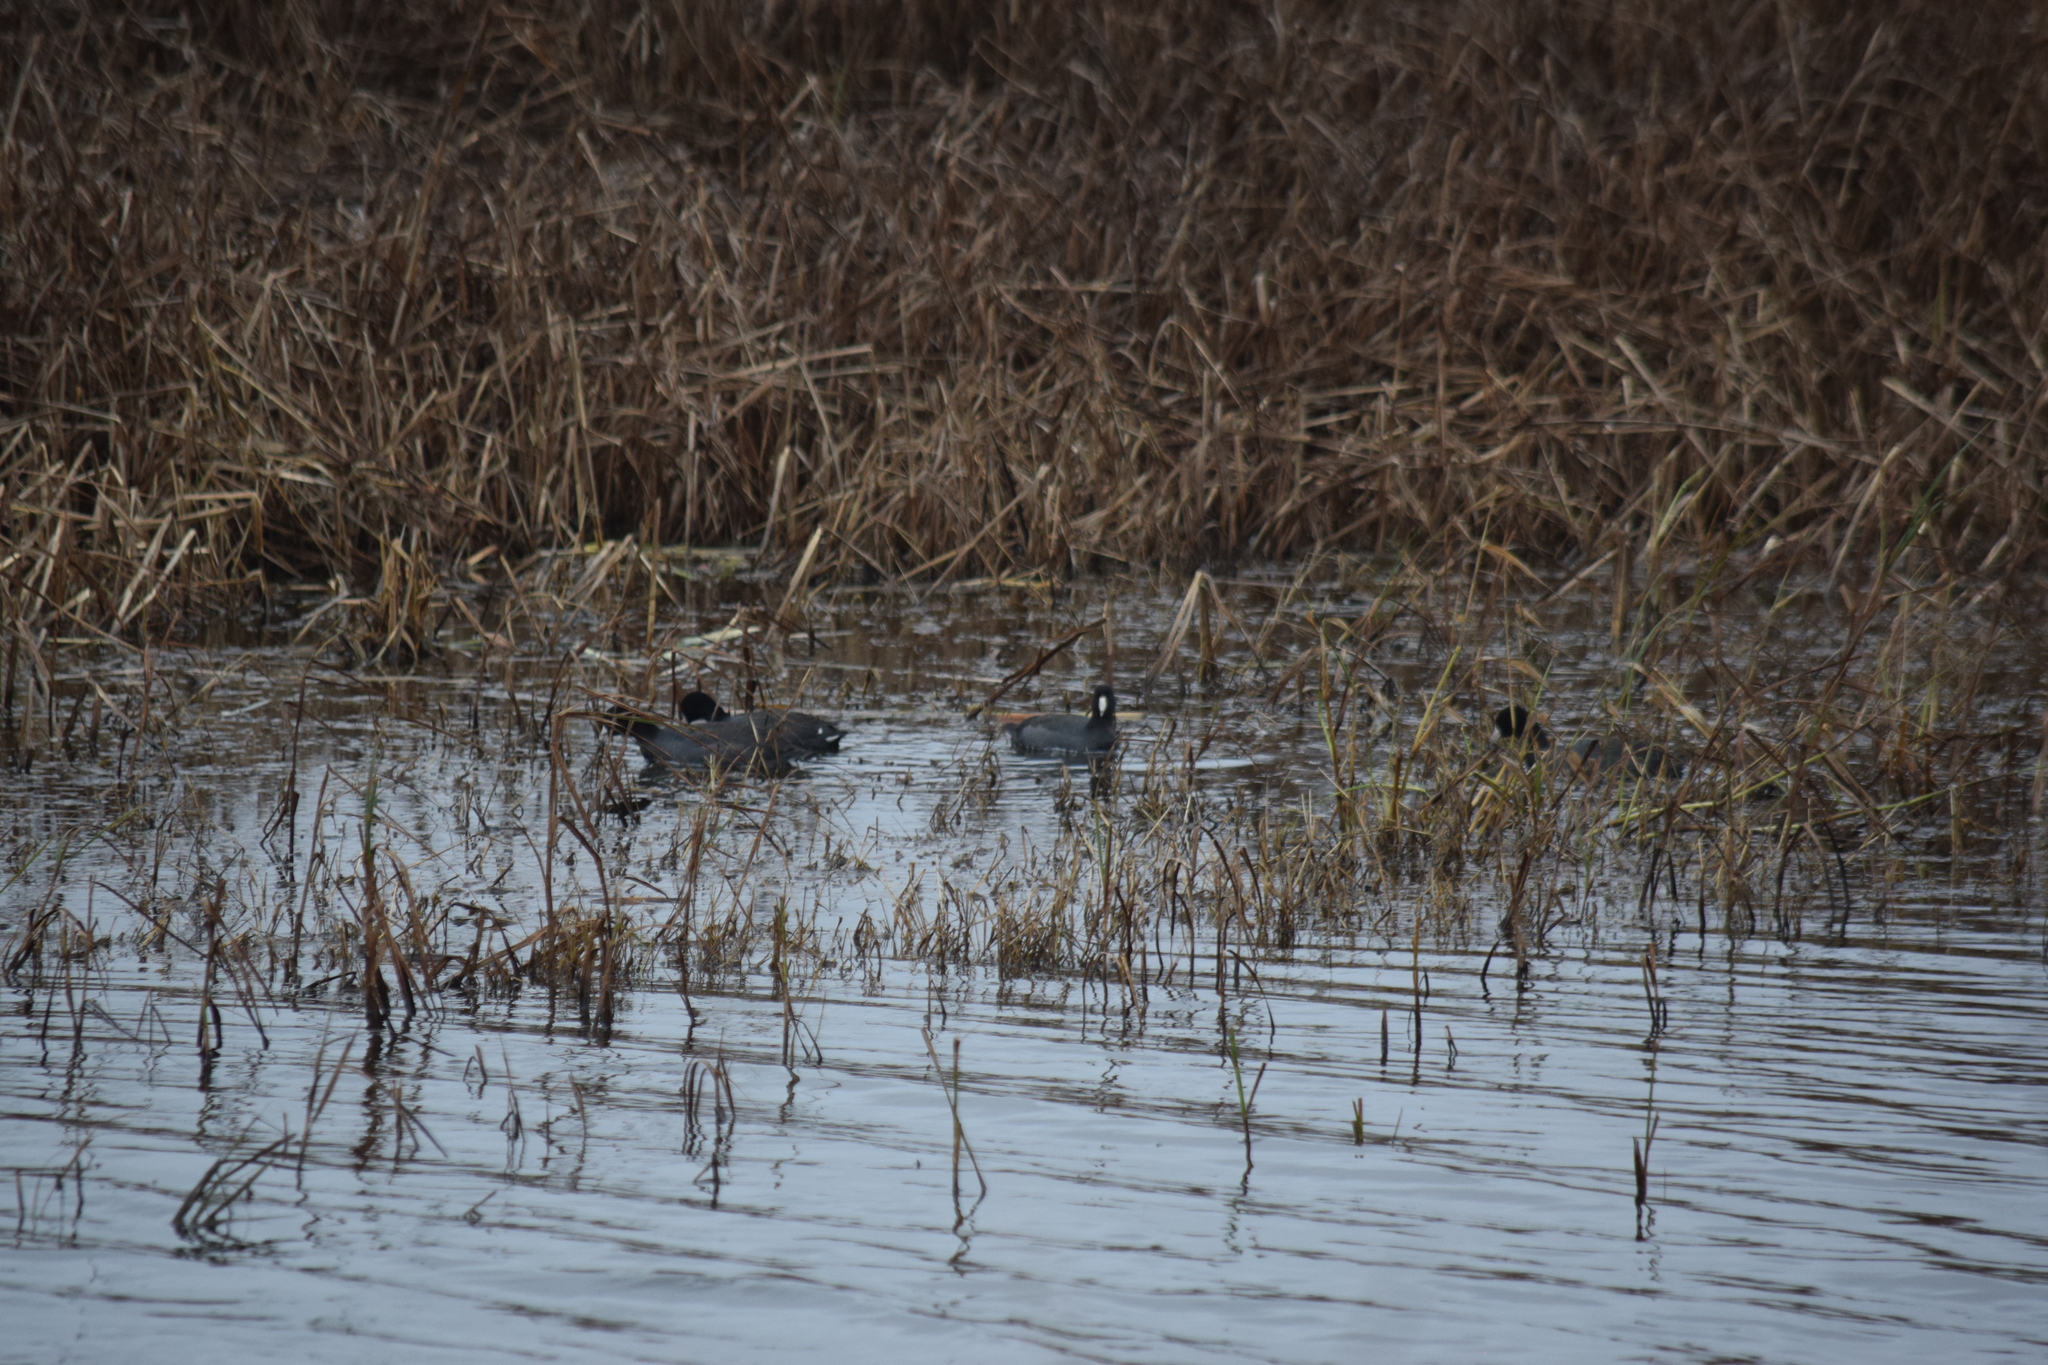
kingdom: Animalia
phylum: Chordata
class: Aves
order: Gruiformes
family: Rallidae
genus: Fulica
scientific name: Fulica americana
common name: American coot
